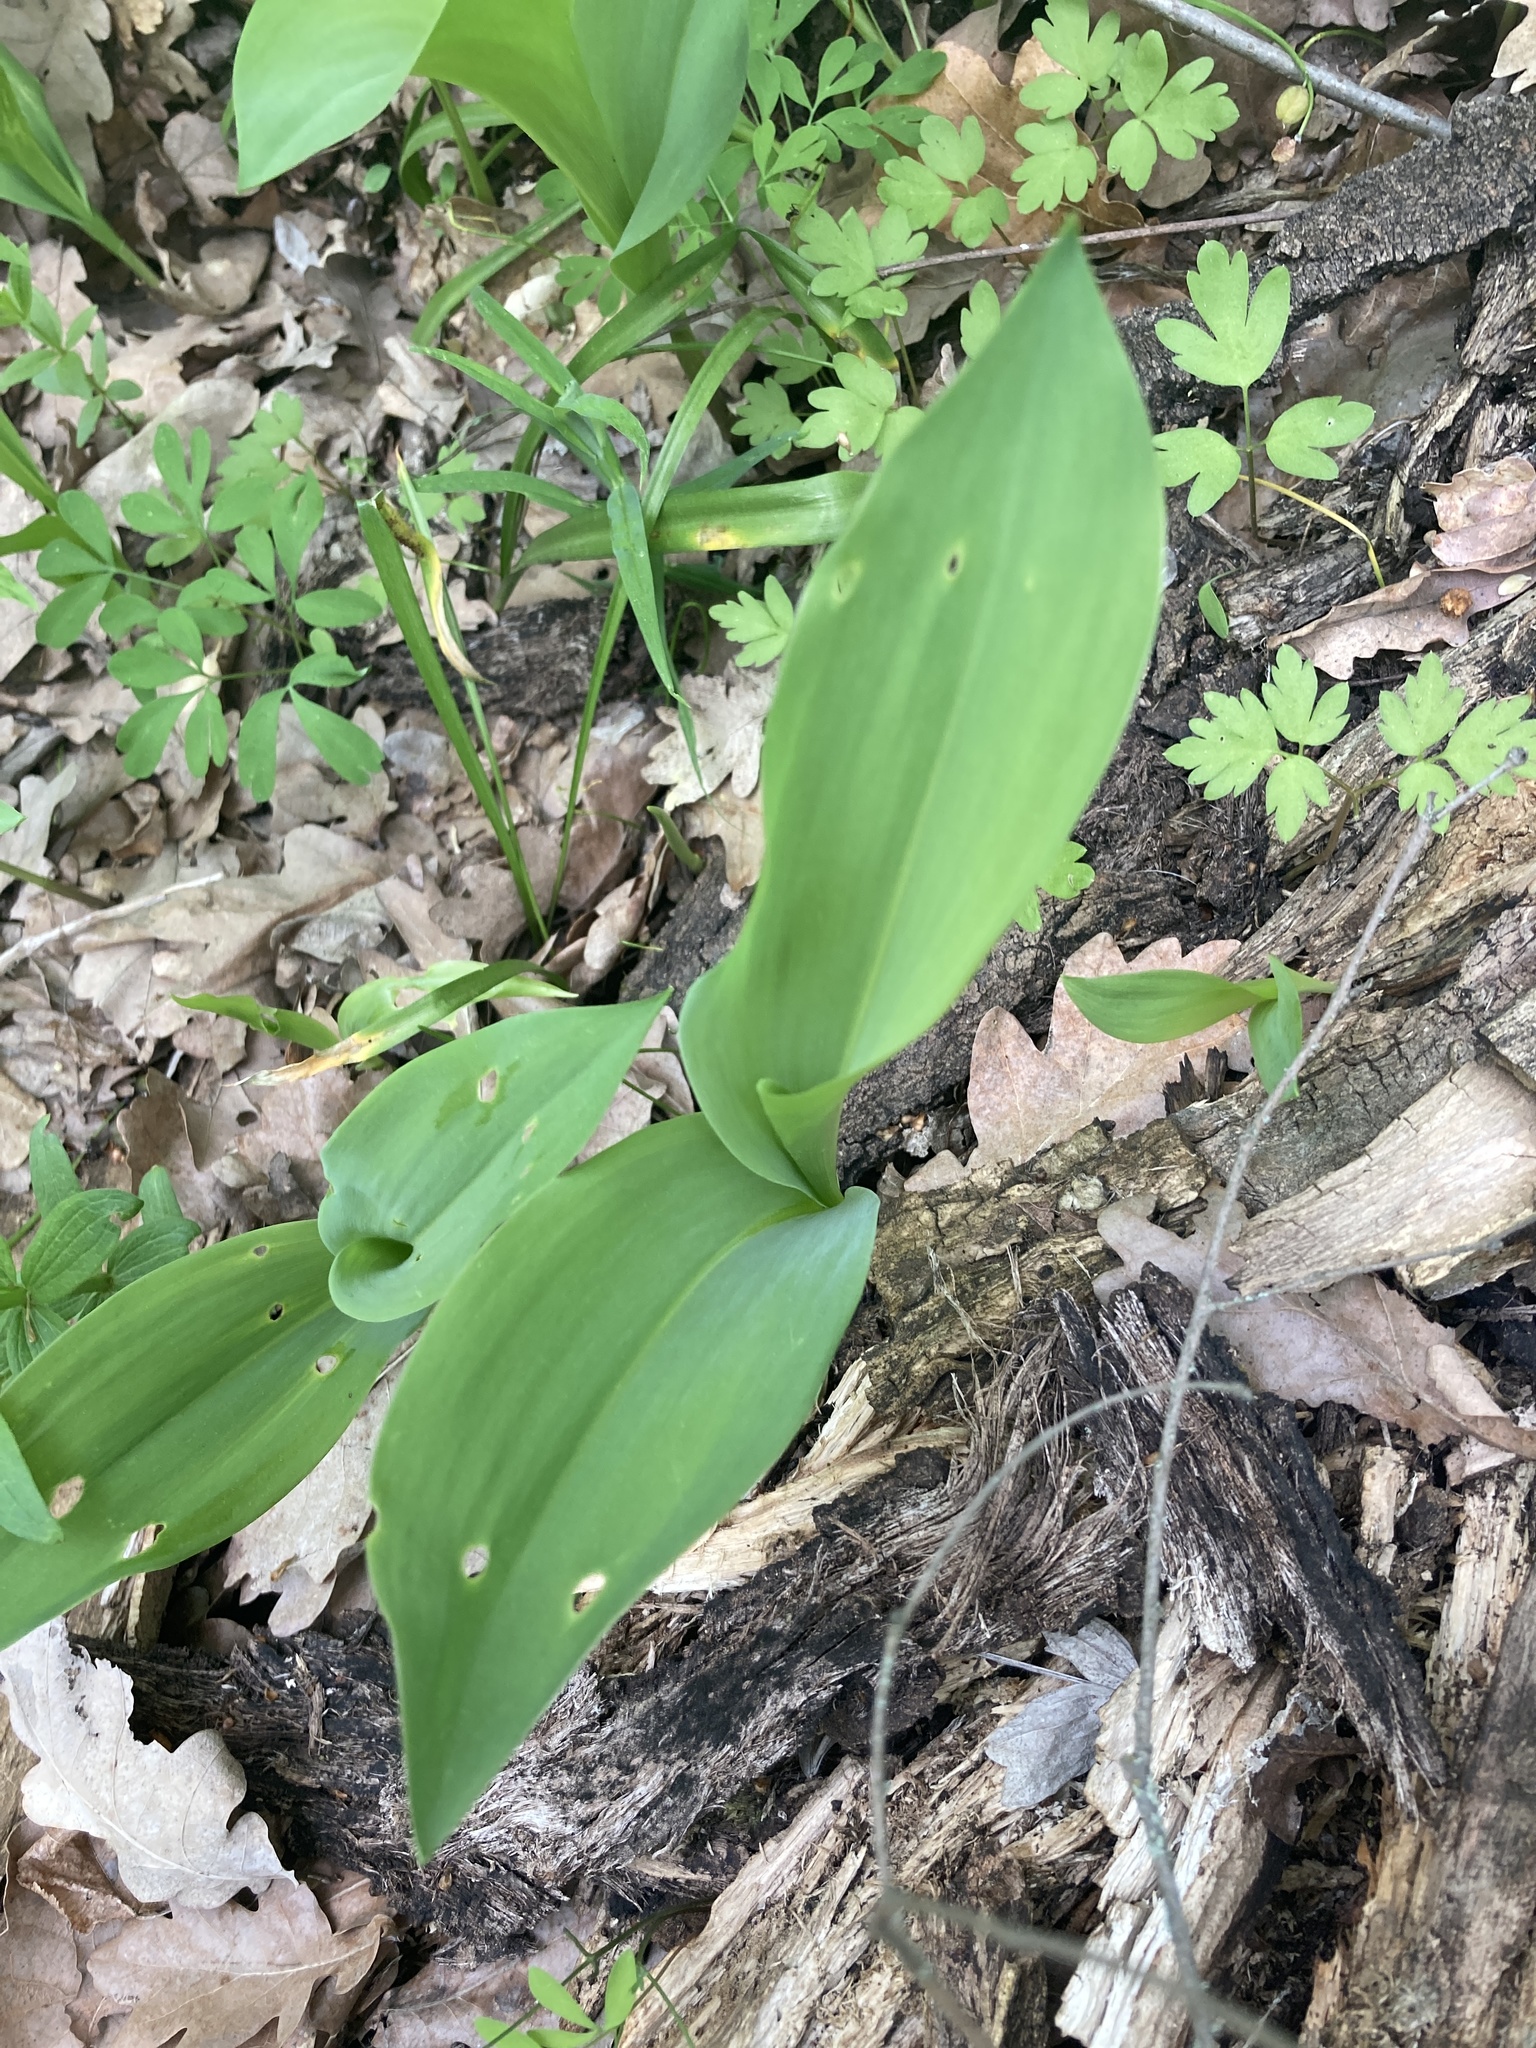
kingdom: Plantae
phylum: Tracheophyta
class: Liliopsida
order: Asparagales
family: Asparagaceae
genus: Convallaria
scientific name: Convallaria majalis
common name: Lily-of-the-valley
